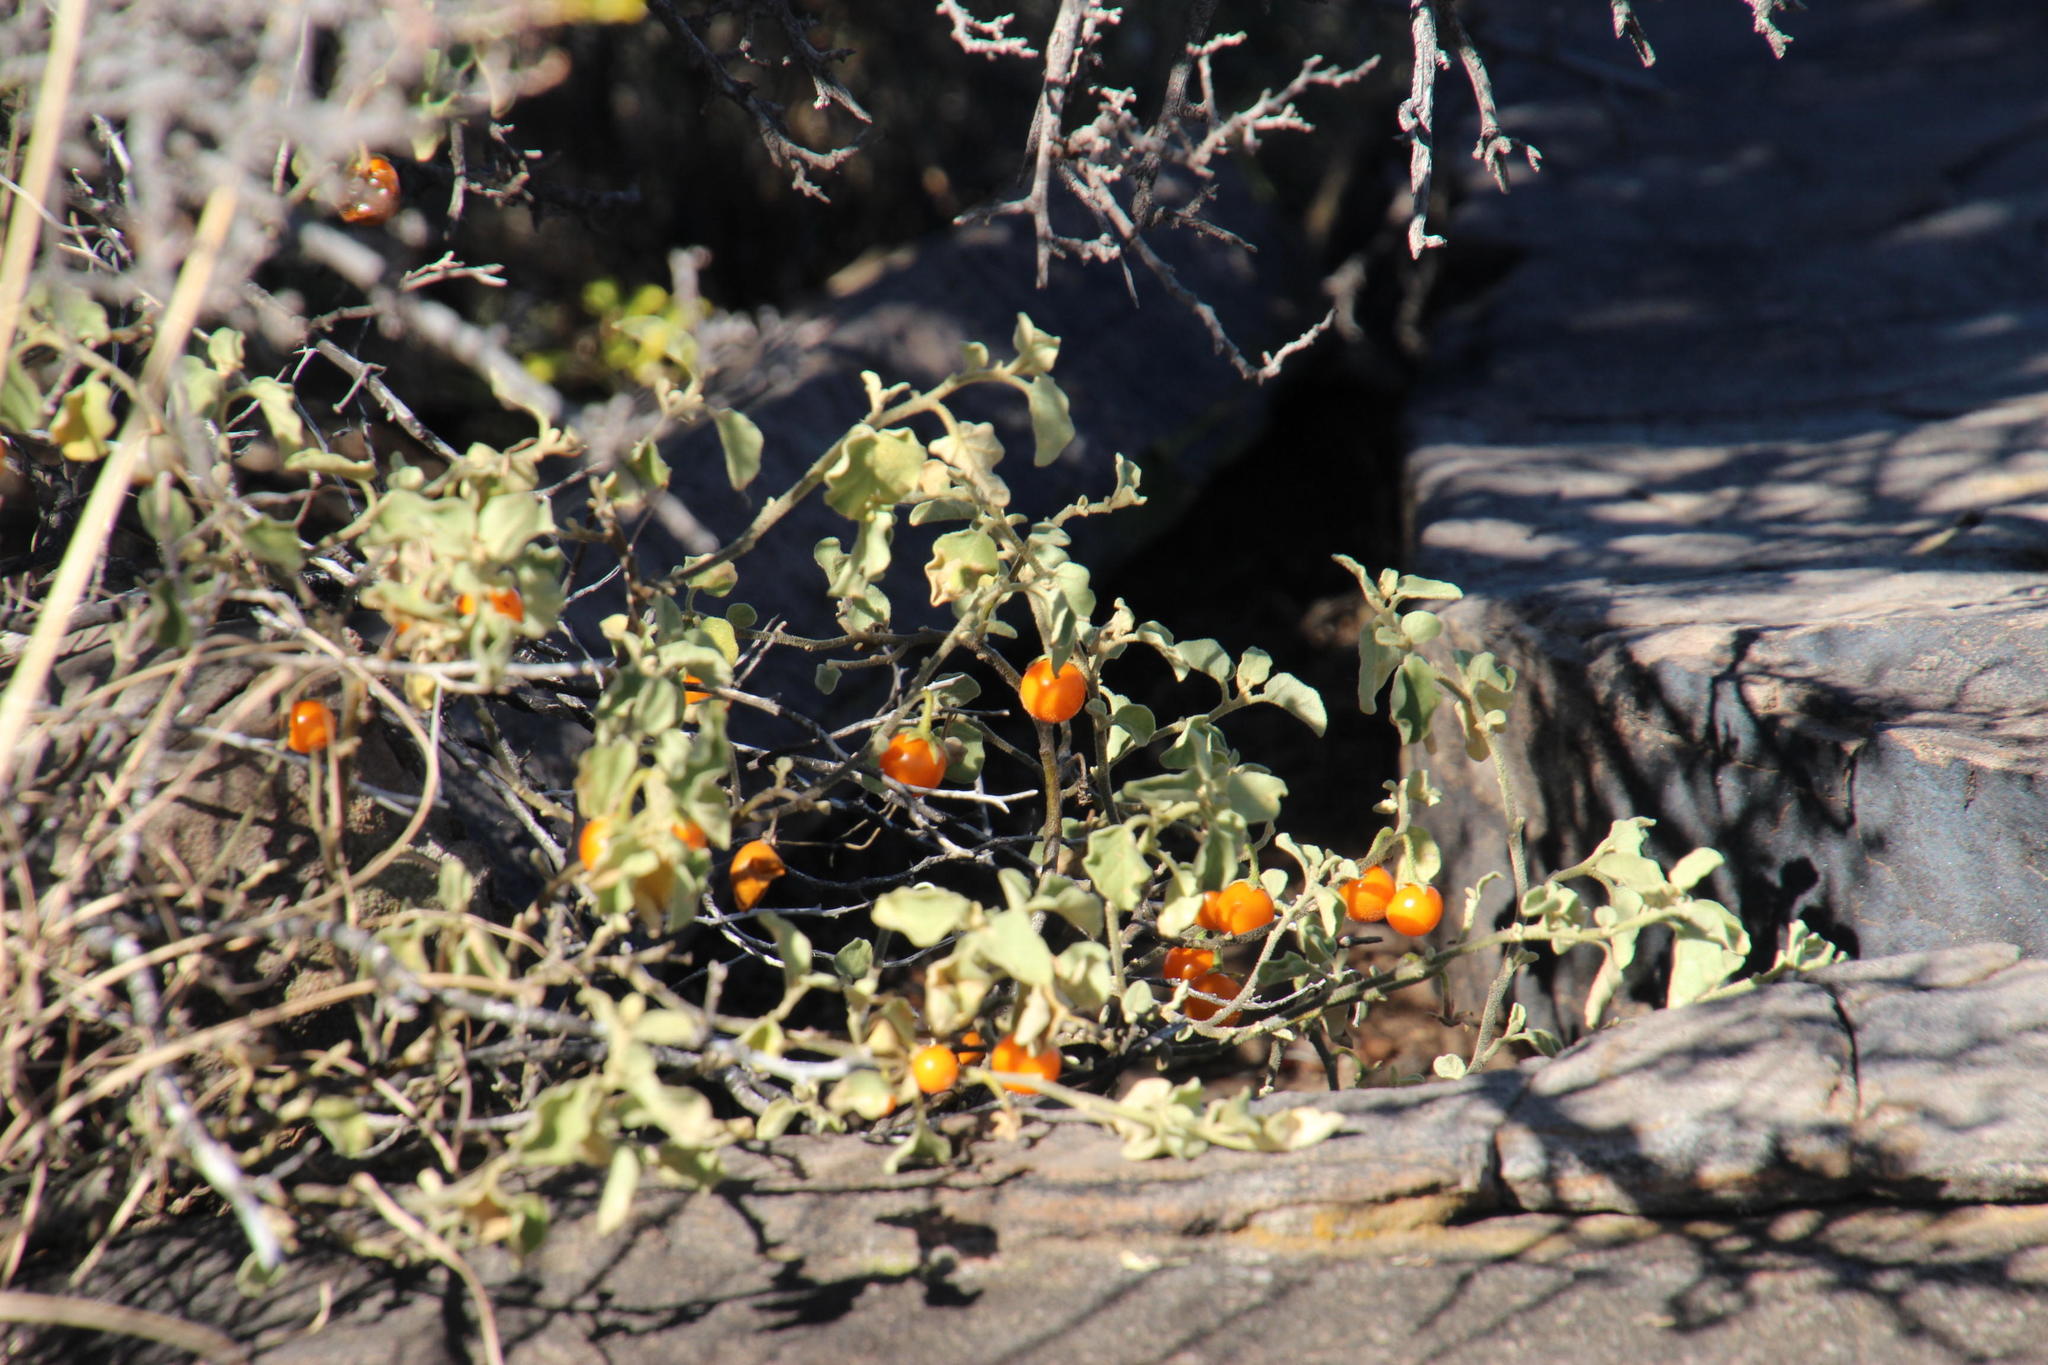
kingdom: Plantae
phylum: Tracheophyta
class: Magnoliopsida
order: Solanales
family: Solanaceae
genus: Solanum
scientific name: Solanum tomentosum
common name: Wild aubergine
